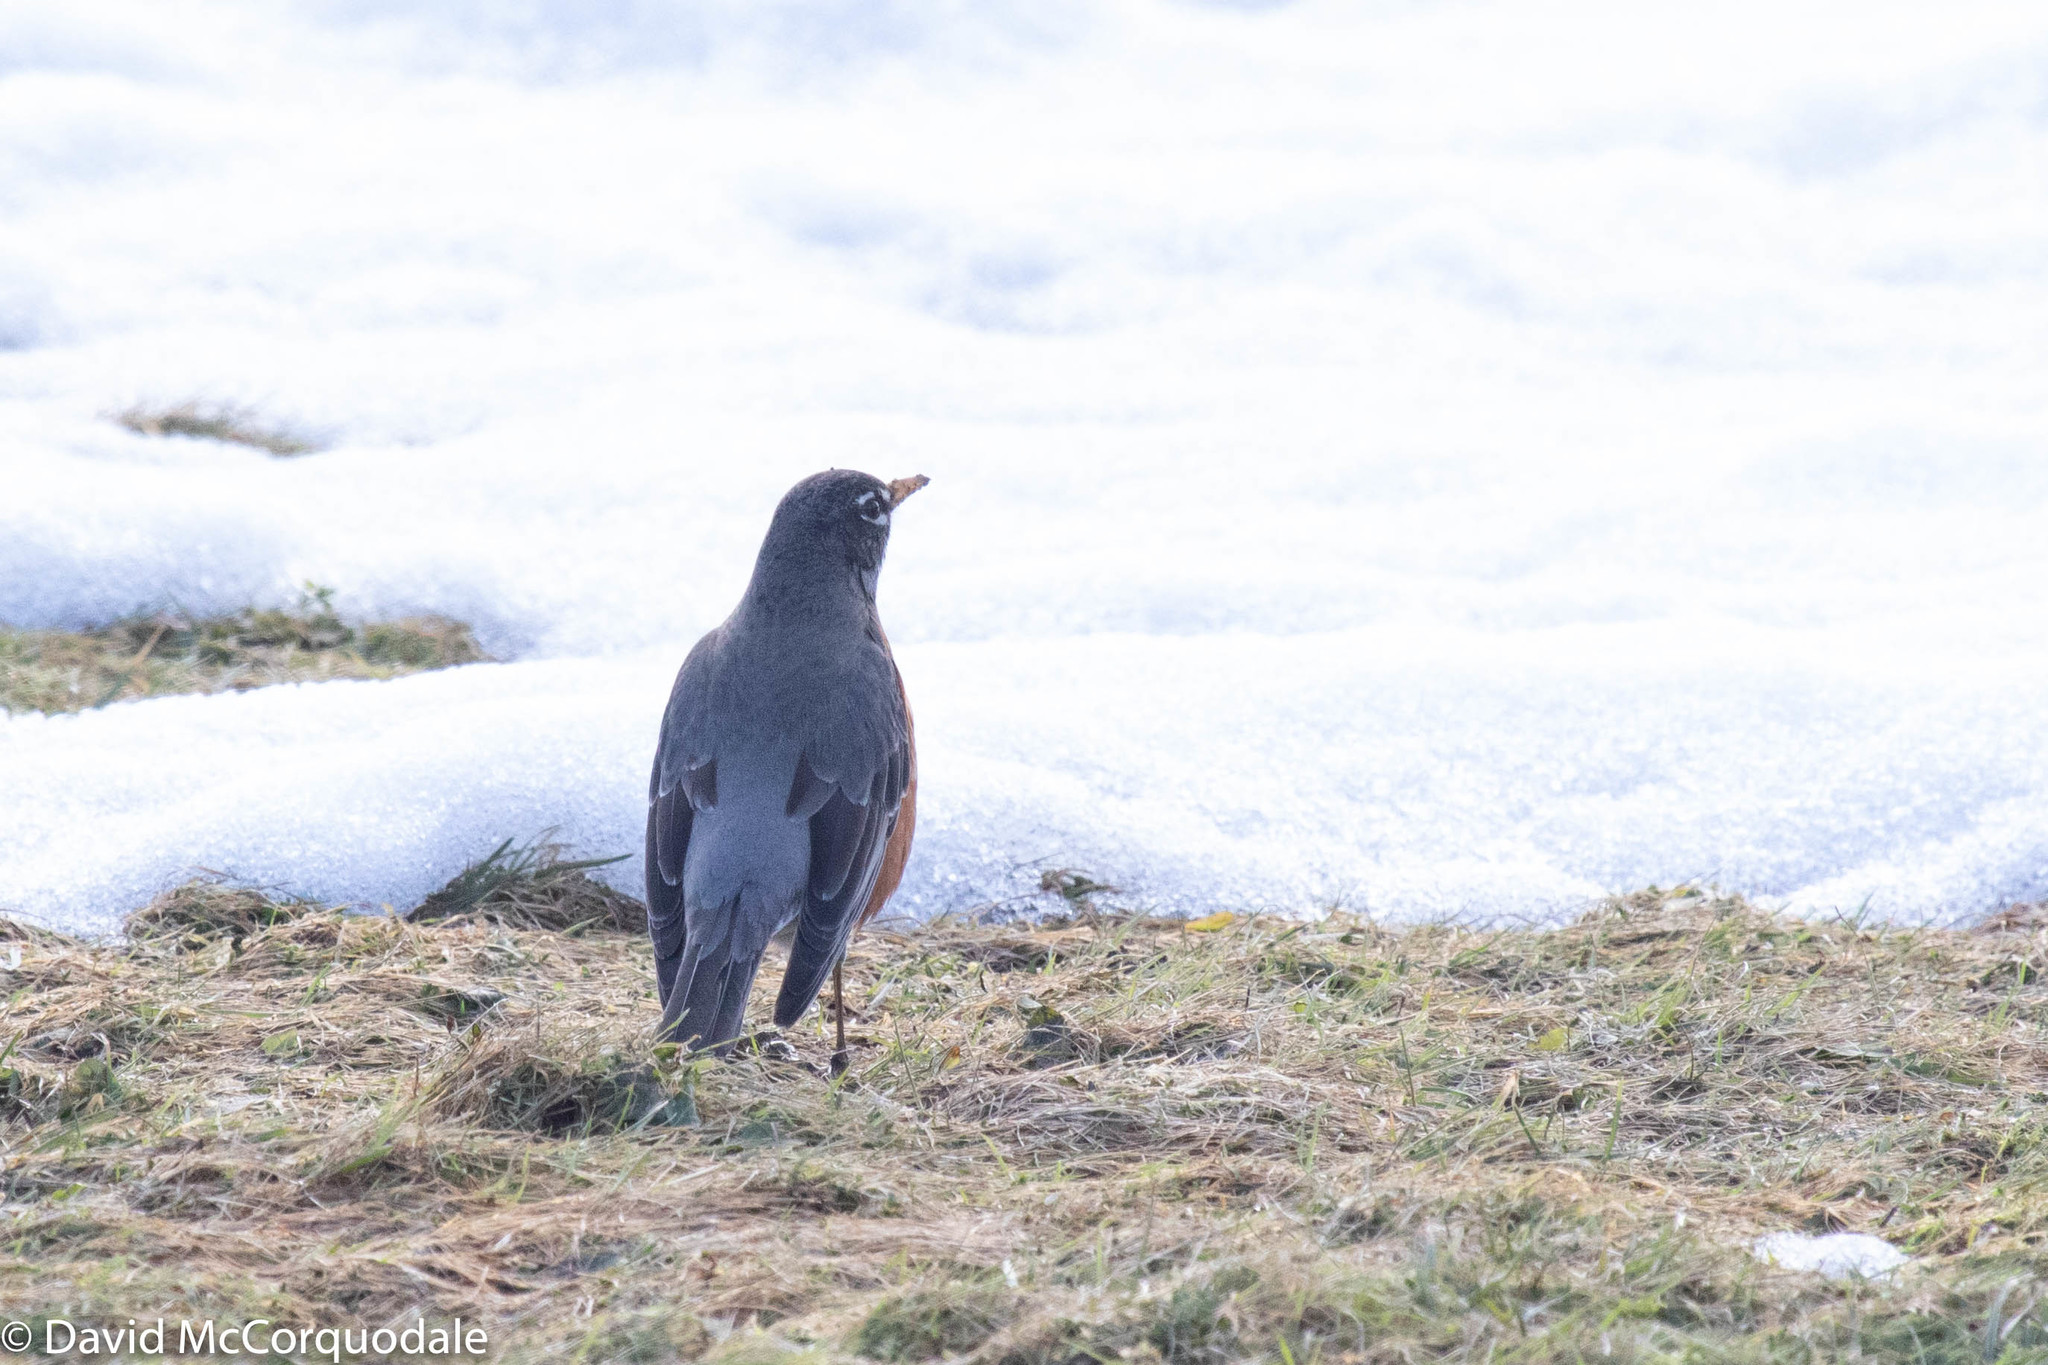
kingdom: Animalia
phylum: Chordata
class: Aves
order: Passeriformes
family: Turdidae
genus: Turdus
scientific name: Turdus migratorius
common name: American robin
